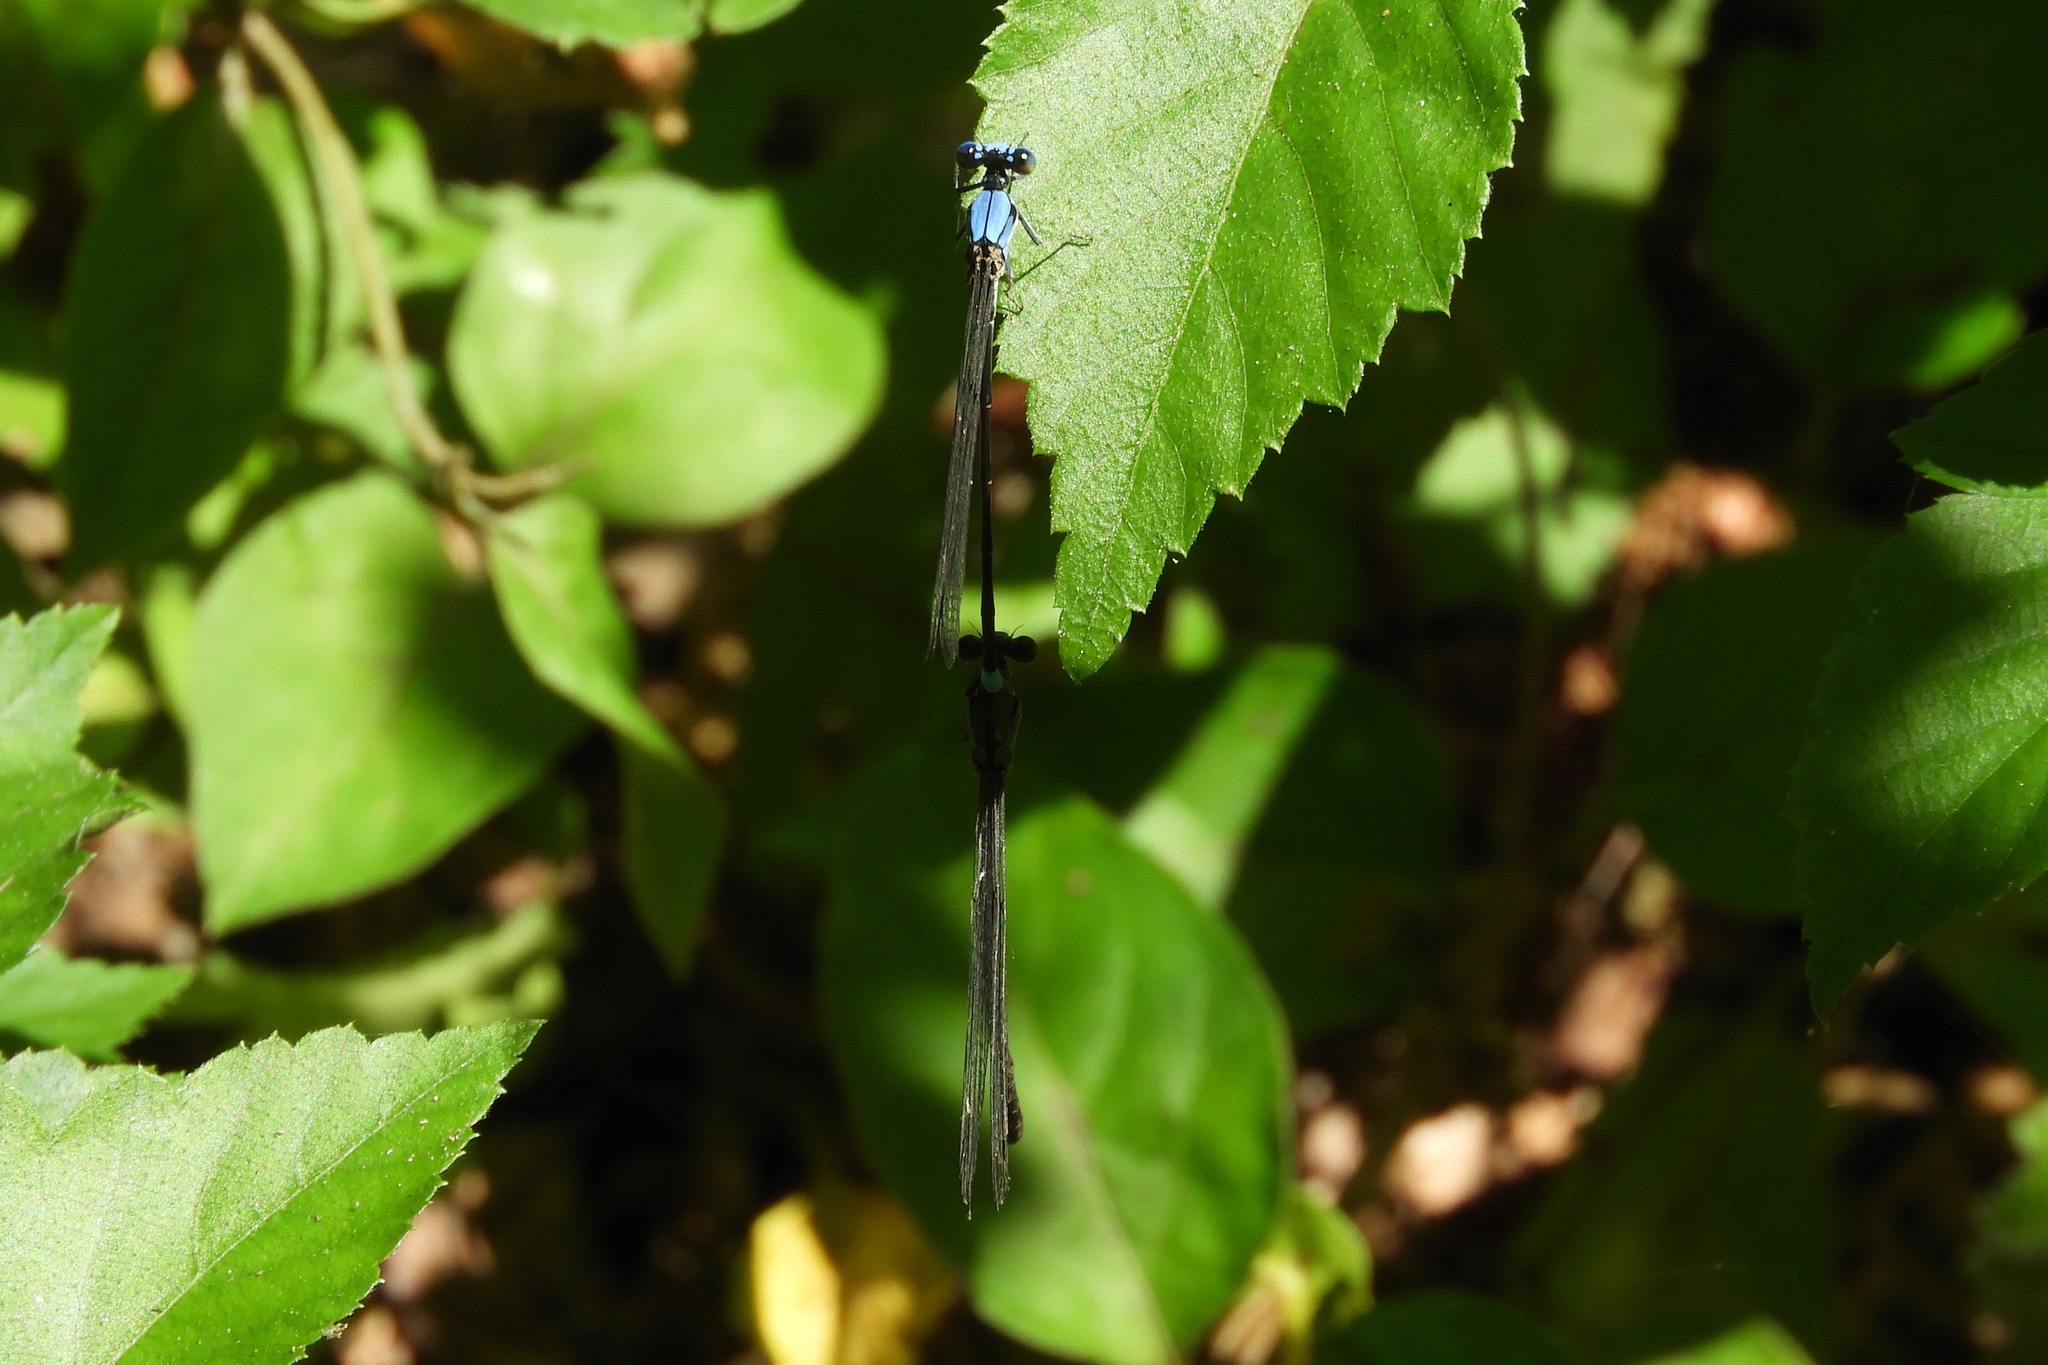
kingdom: Animalia
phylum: Arthropoda
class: Insecta
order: Odonata
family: Coenagrionidae
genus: Argia
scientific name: Argia apicalis
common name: Blue-fronted dancer
